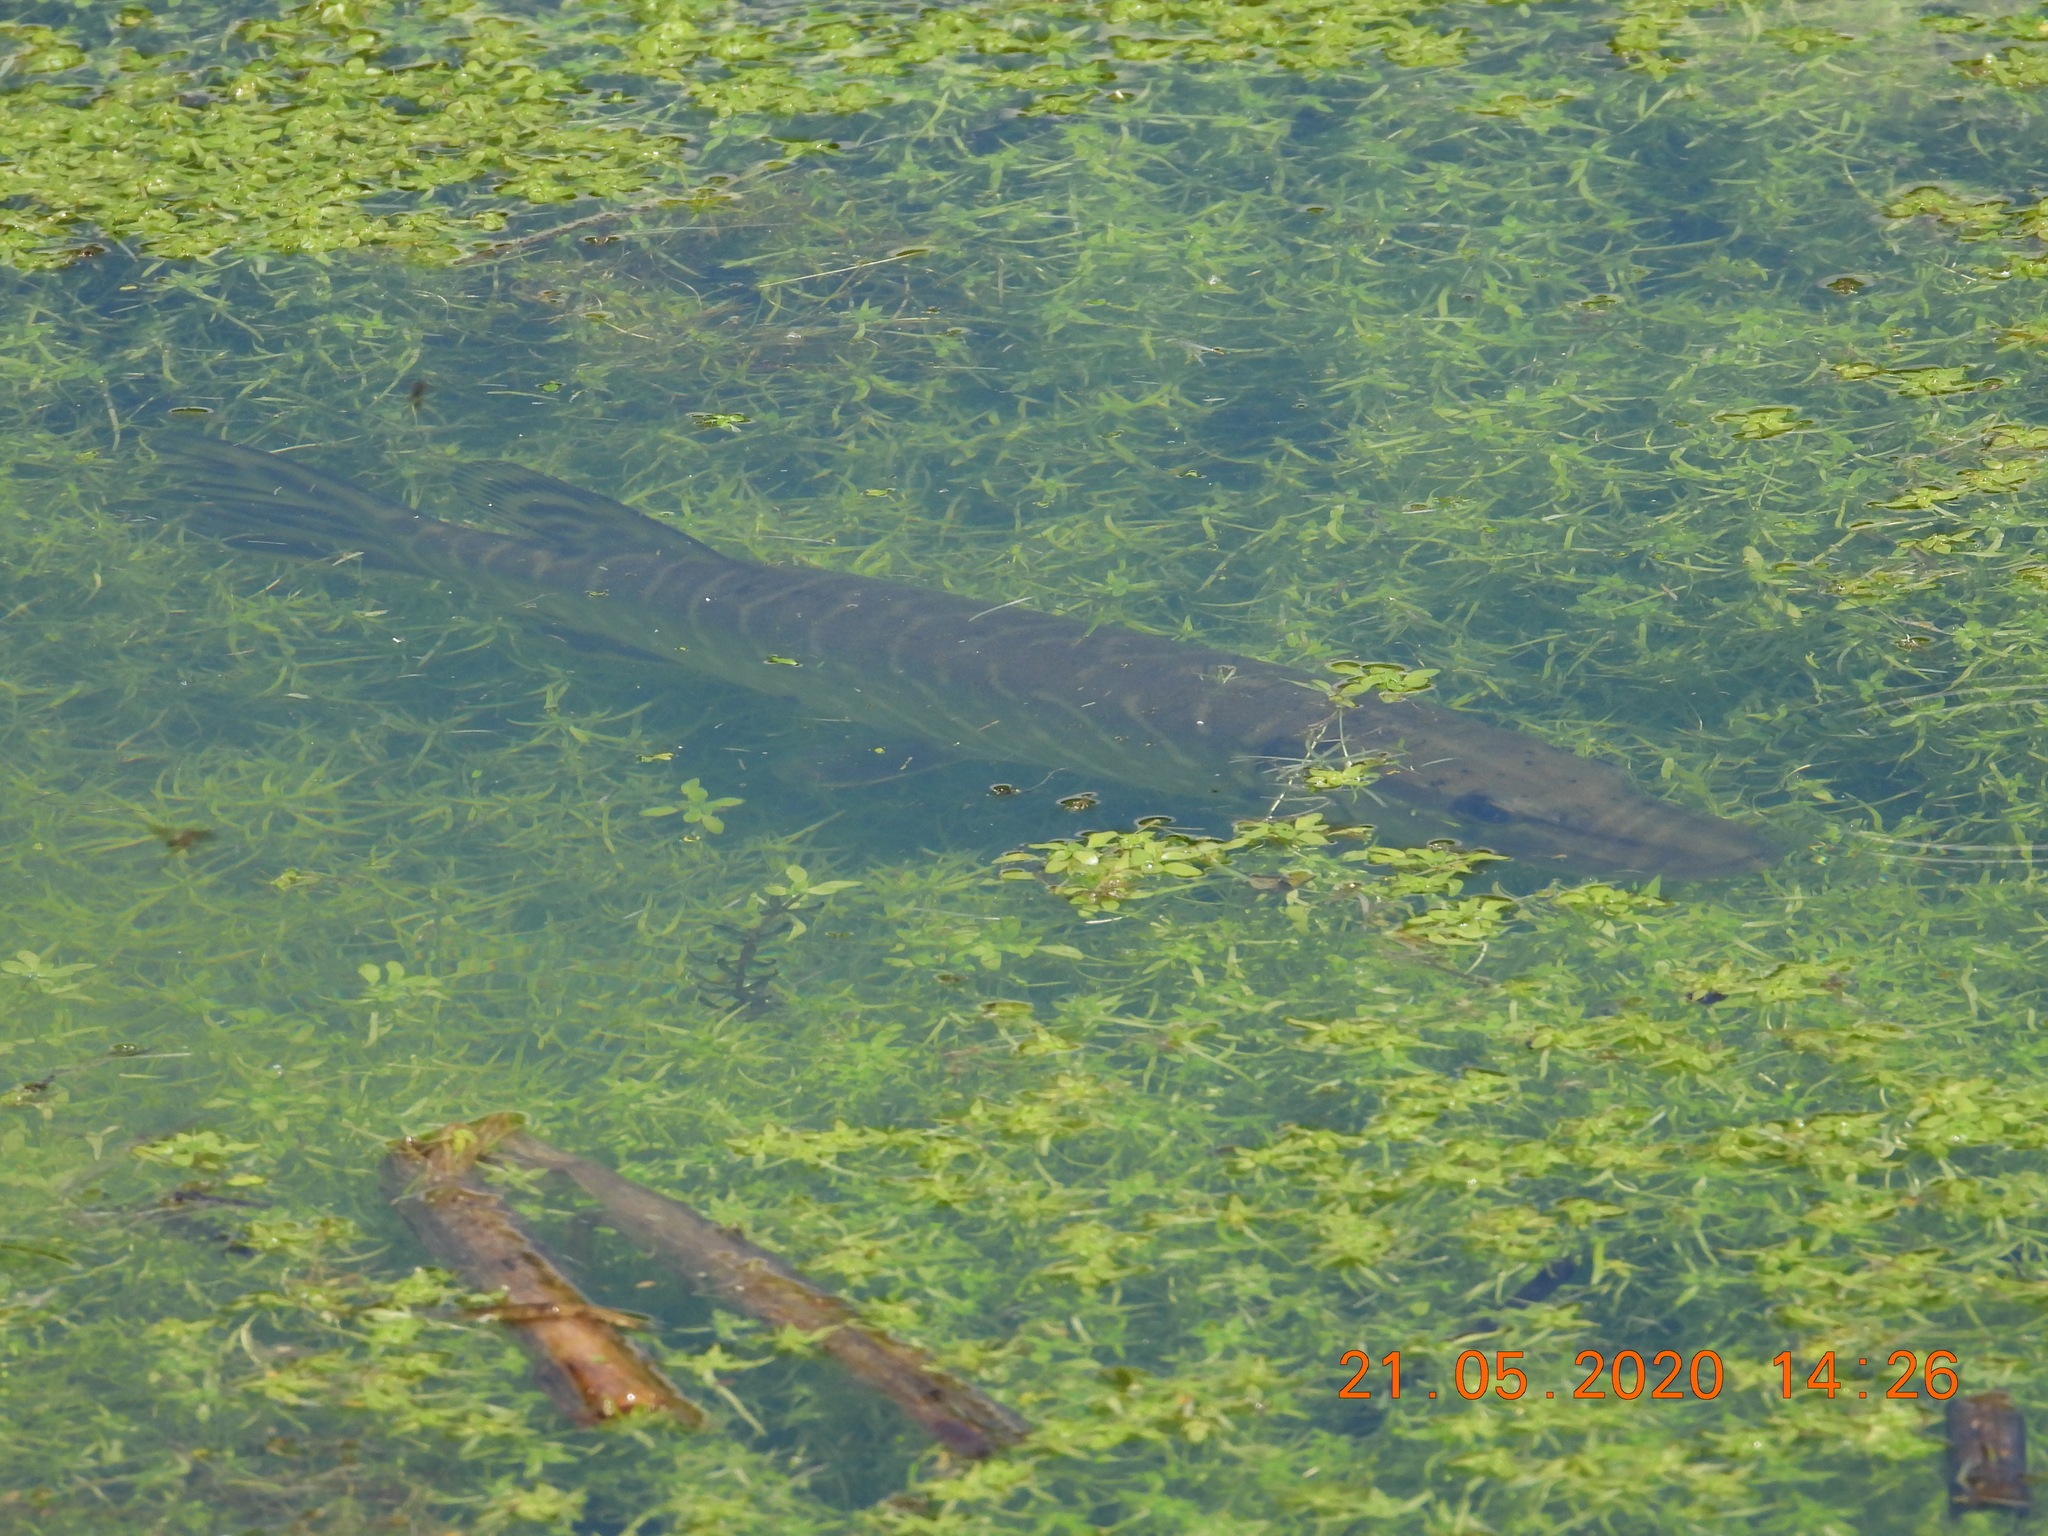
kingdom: Animalia
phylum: Chordata
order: Esociformes
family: Esocidae
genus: Esox
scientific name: Esox lucius
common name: Northern pike
